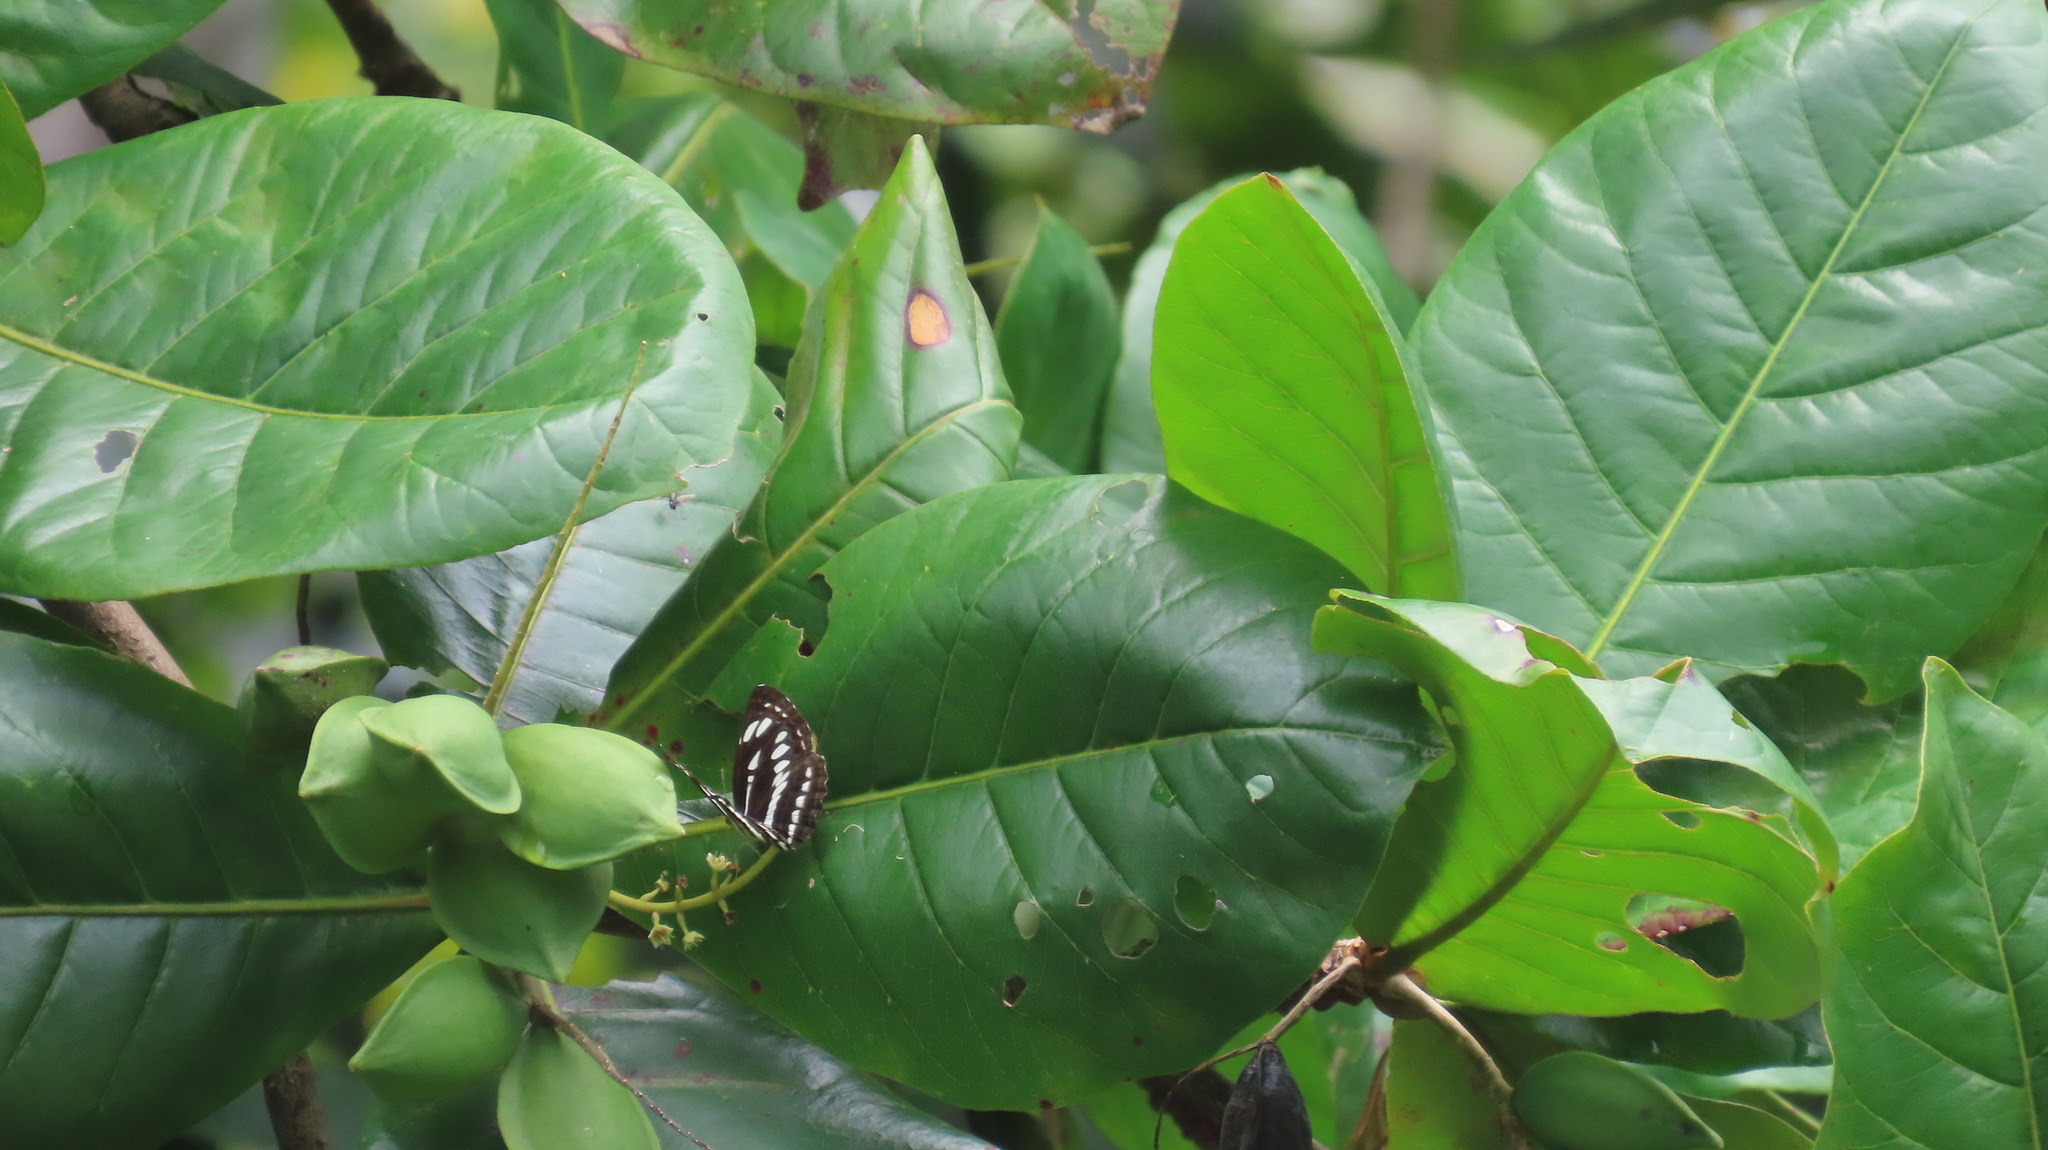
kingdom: Animalia
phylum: Arthropoda
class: Insecta
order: Lepidoptera
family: Nymphalidae
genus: Neptis
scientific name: Neptis hylas
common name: Common sailer
